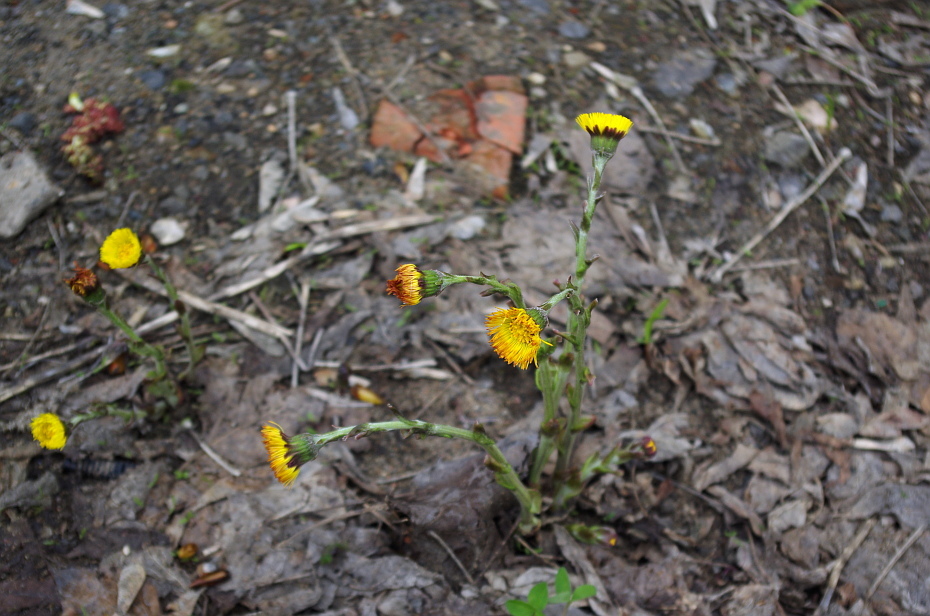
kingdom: Plantae
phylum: Tracheophyta
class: Magnoliopsida
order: Asterales
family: Asteraceae
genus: Tussilago
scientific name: Tussilago farfara
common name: Coltsfoot
